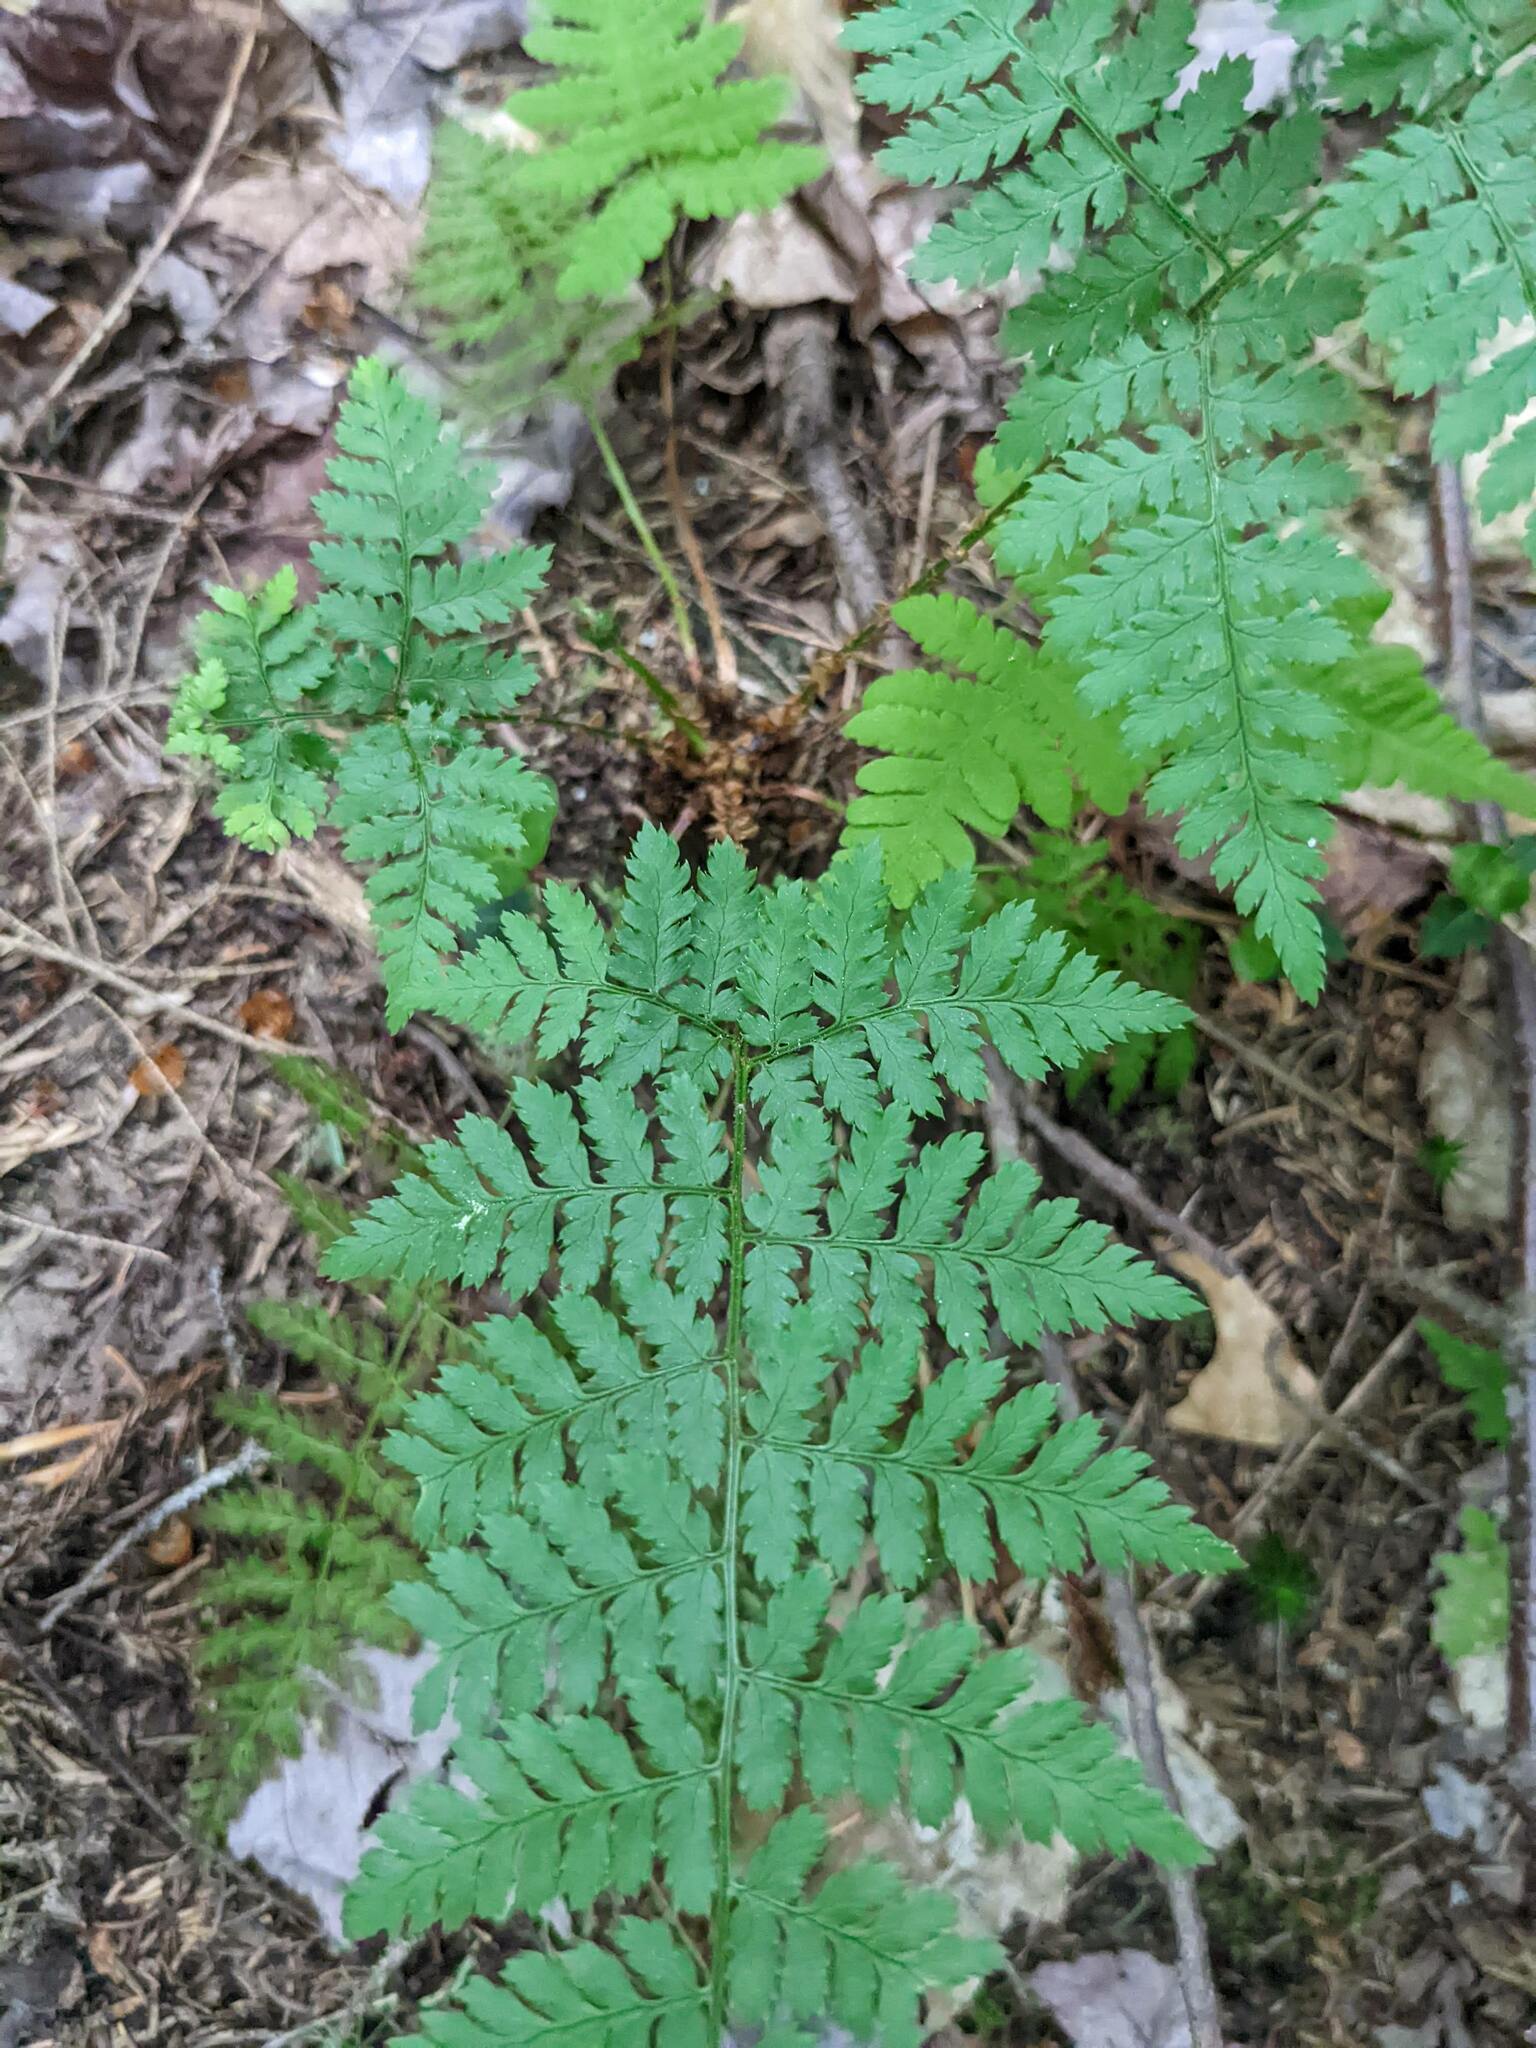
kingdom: Plantae
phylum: Tracheophyta
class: Polypodiopsida
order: Polypodiales
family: Dryopteridaceae
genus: Dryopteris
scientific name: Dryopteris intermedia
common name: Evergreen wood fern
